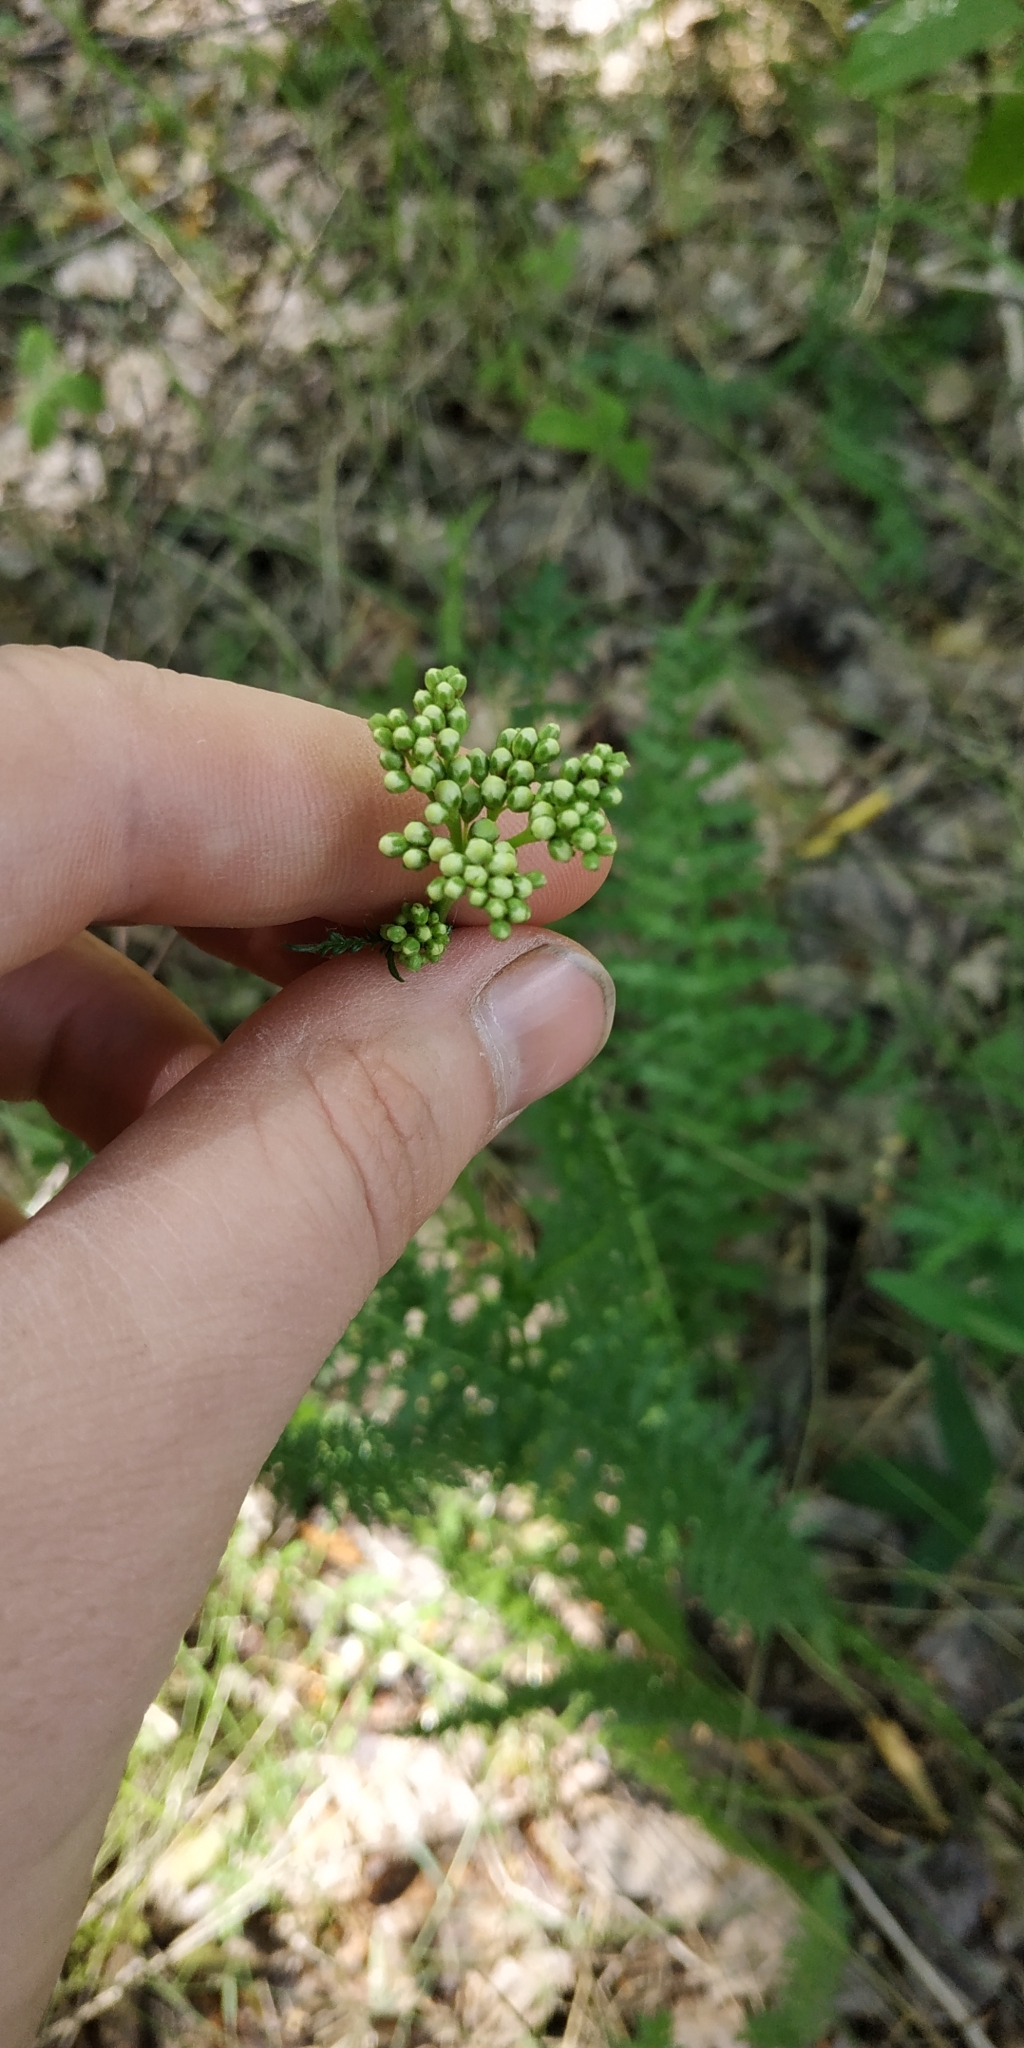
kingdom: Plantae
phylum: Tracheophyta
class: Magnoliopsida
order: Rosales
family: Rosaceae
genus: Filipendula
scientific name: Filipendula vulgaris
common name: Dropwort
